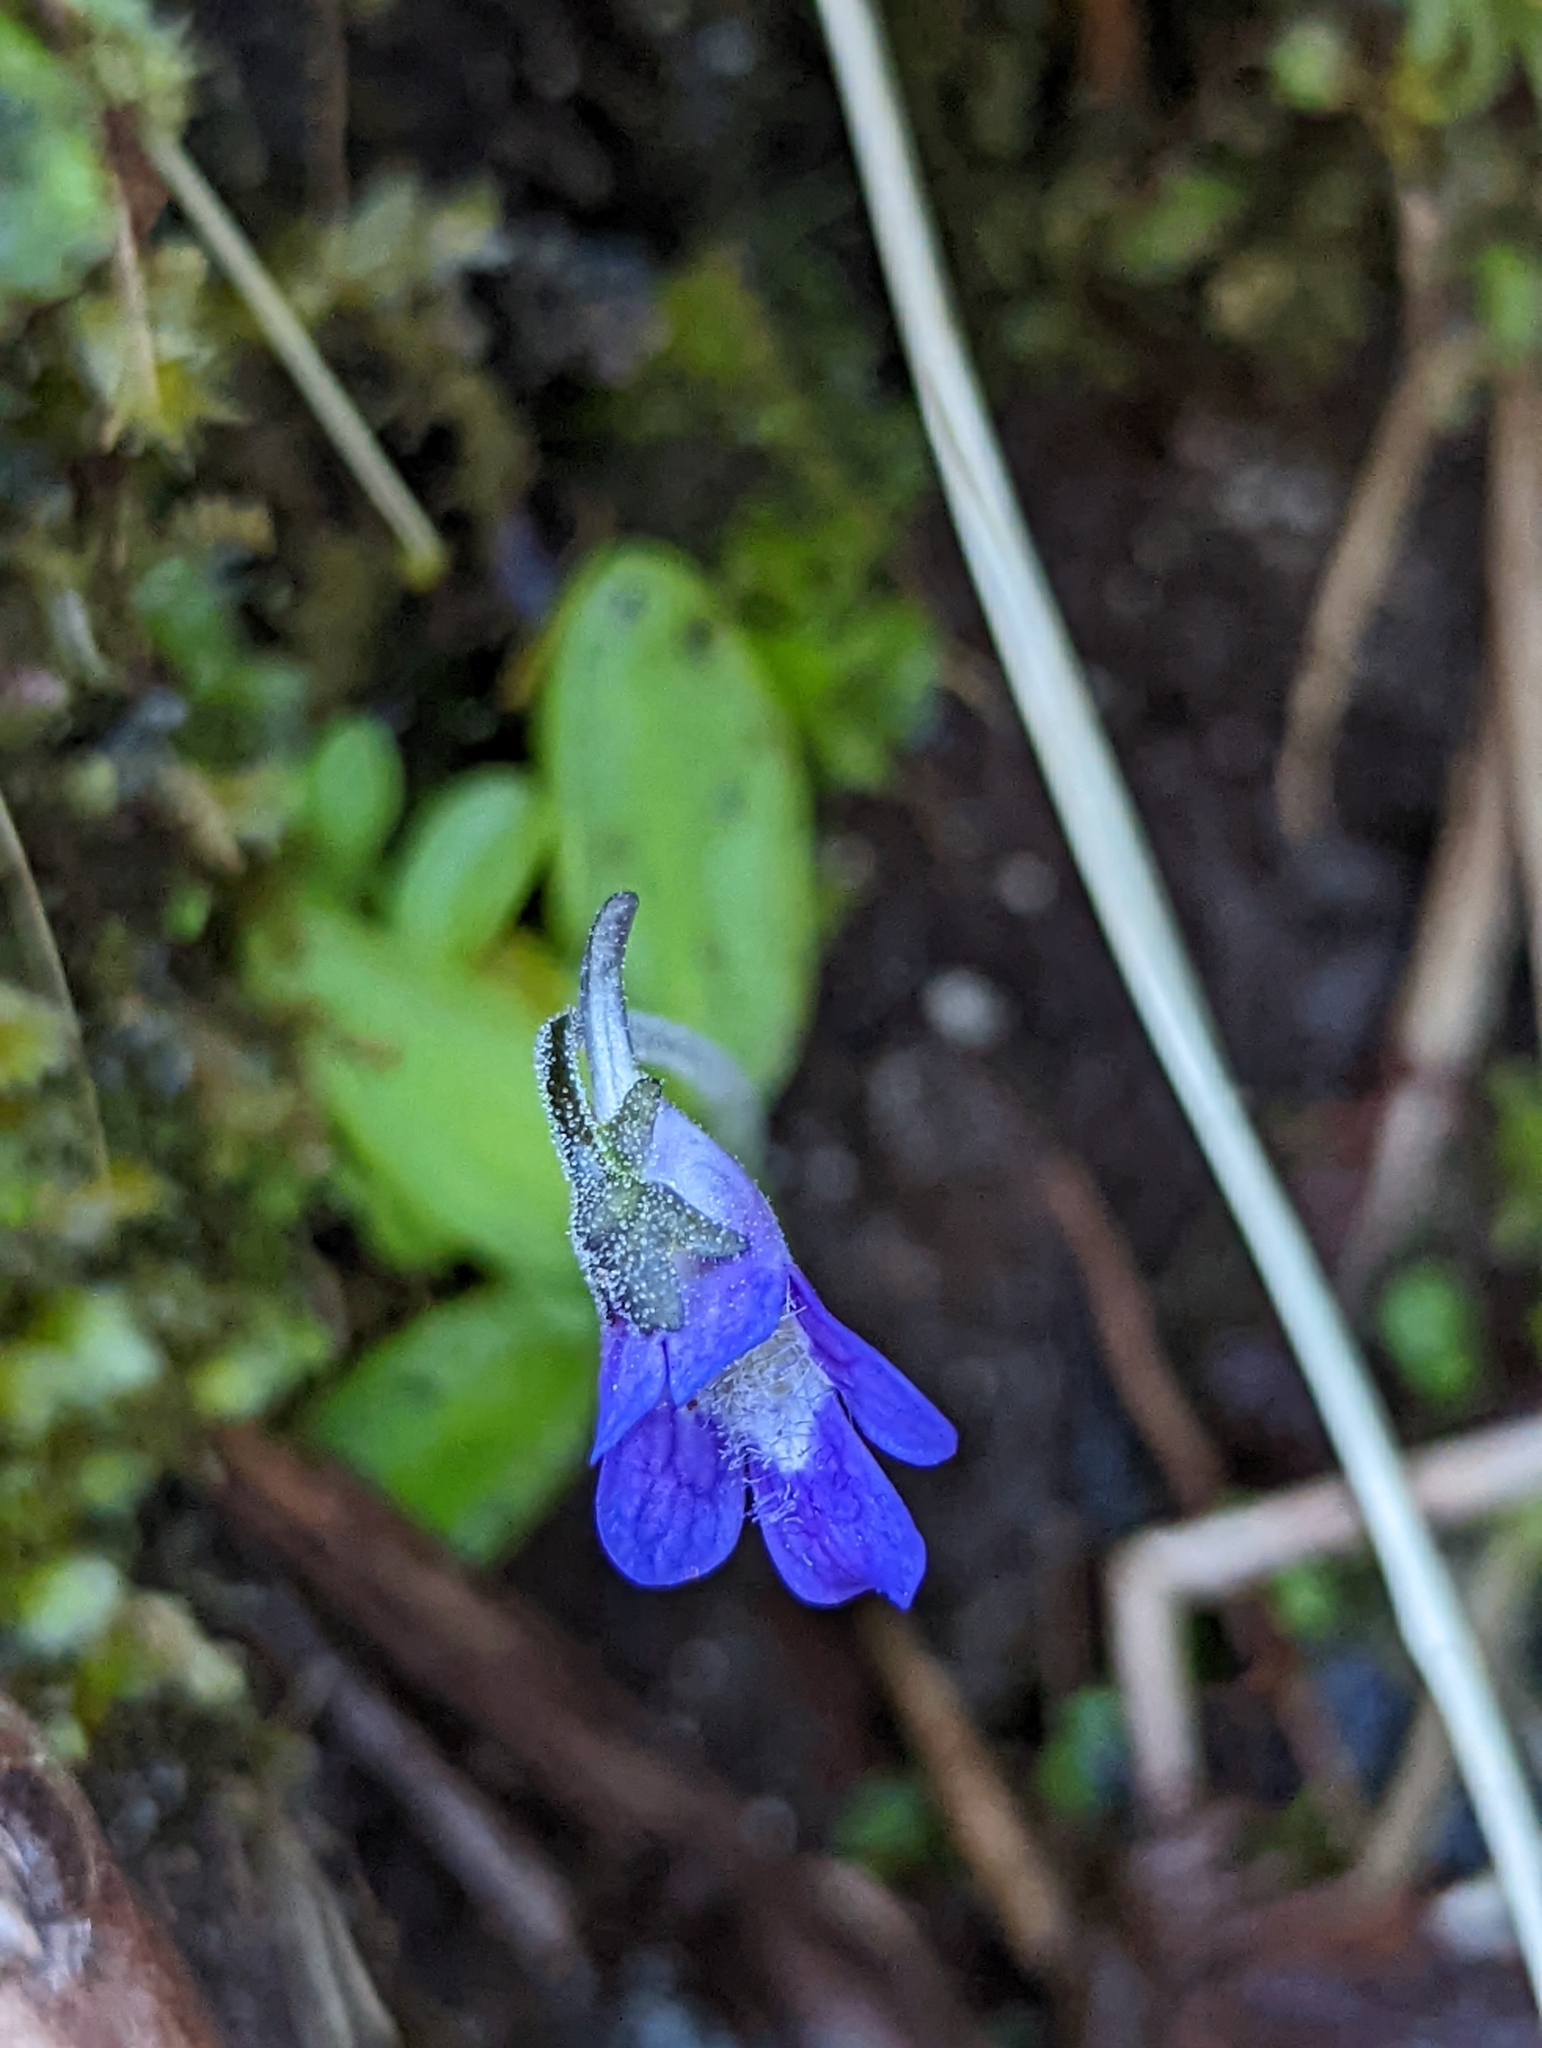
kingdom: Plantae
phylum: Tracheophyta
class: Magnoliopsida
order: Lamiales
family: Lentibulariaceae
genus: Pinguicula
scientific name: Pinguicula vulgaris
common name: Common butterwort
